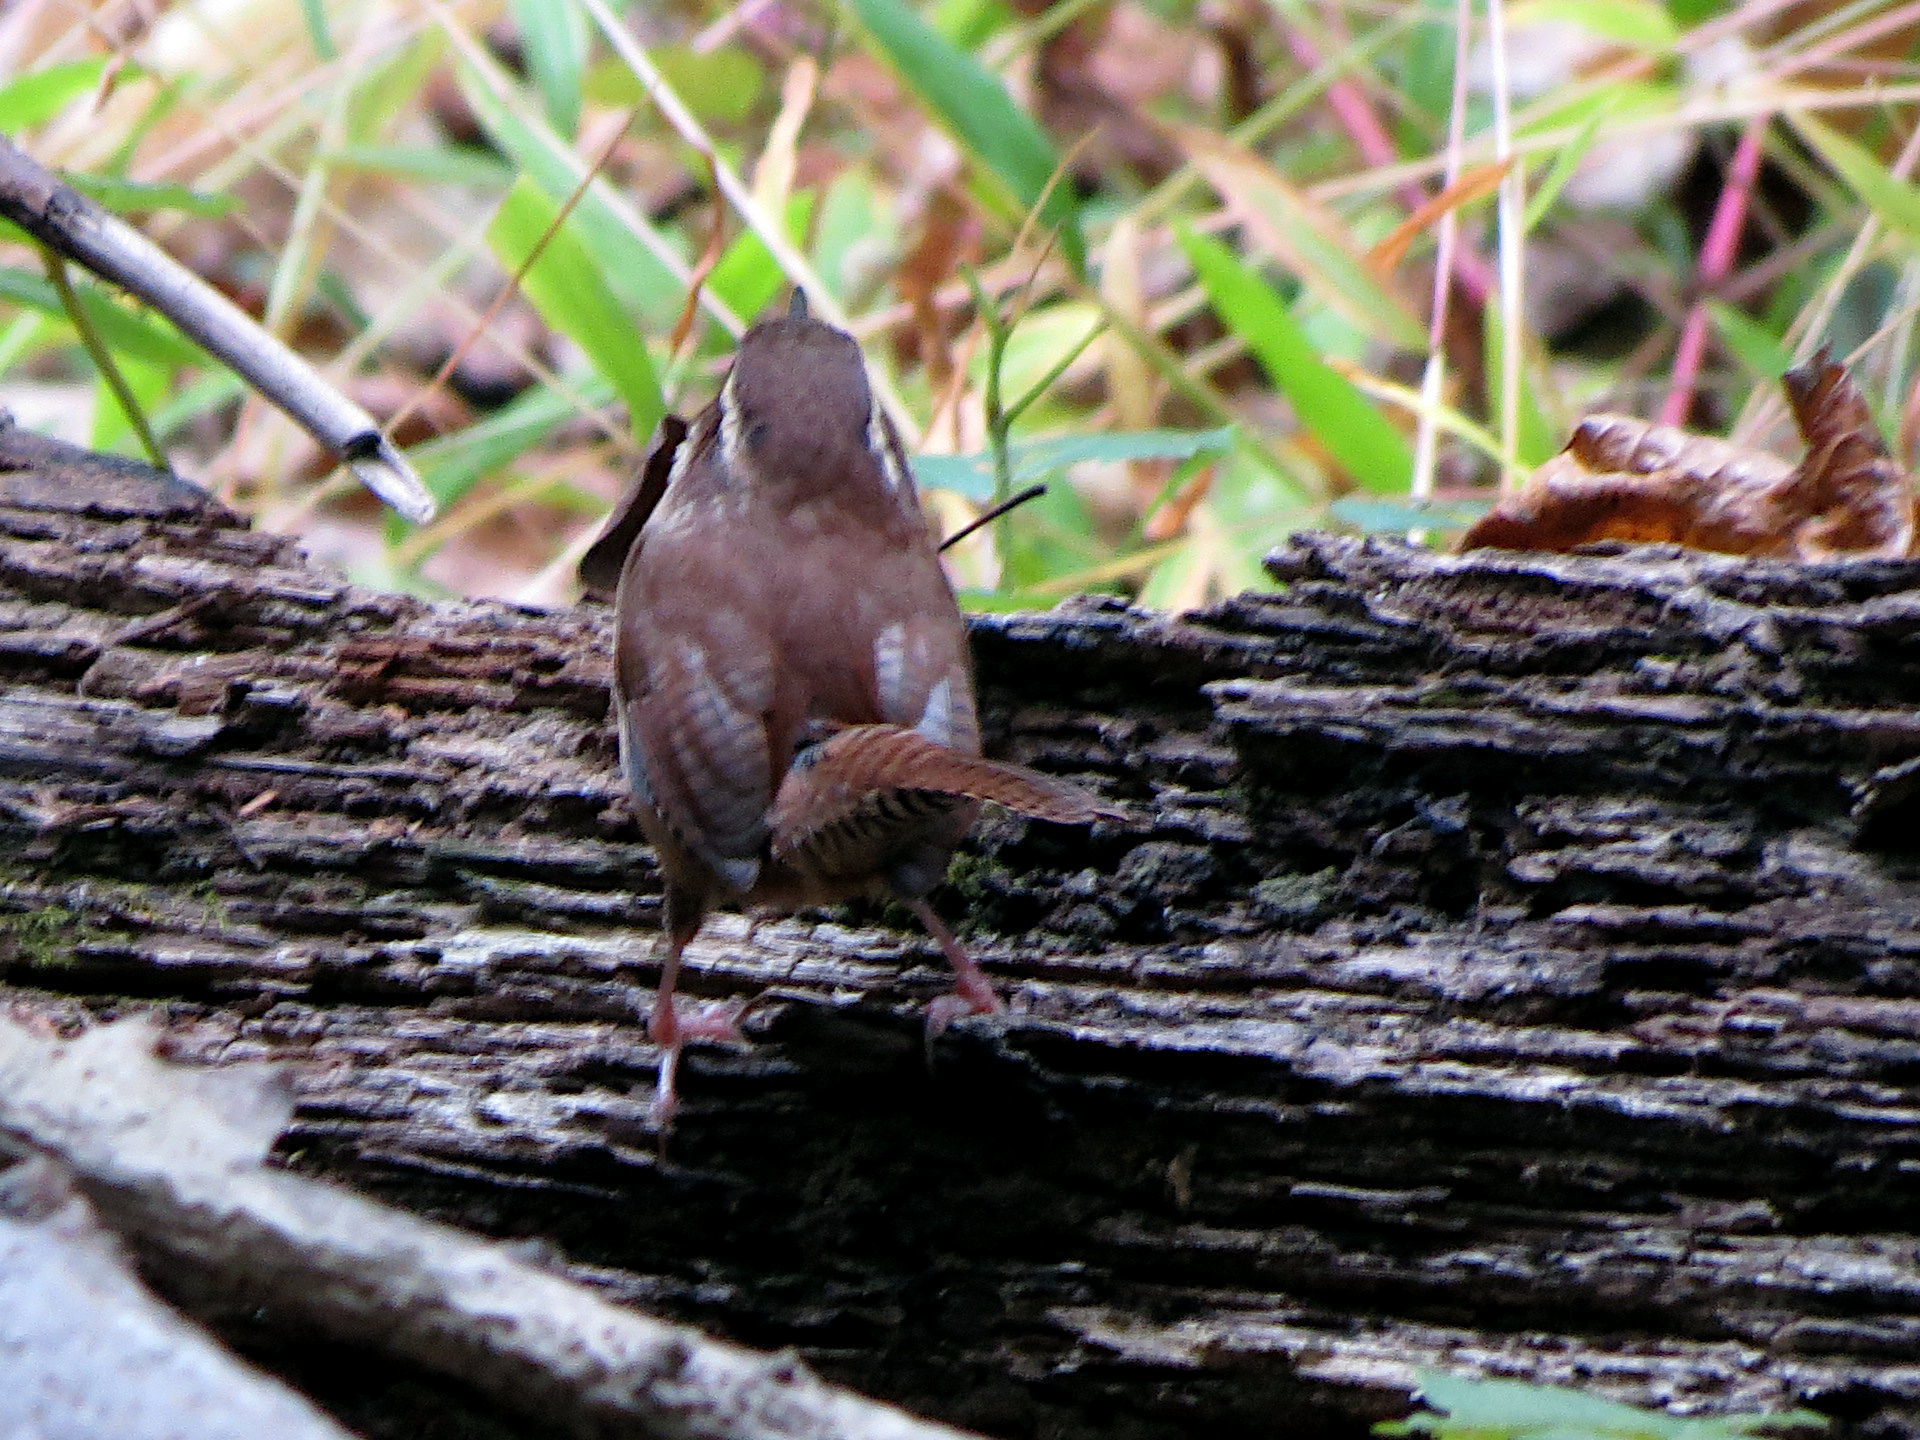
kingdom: Animalia
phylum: Chordata
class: Aves
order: Passeriformes
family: Troglodytidae
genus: Thryothorus
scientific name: Thryothorus ludovicianus
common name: Carolina wren
